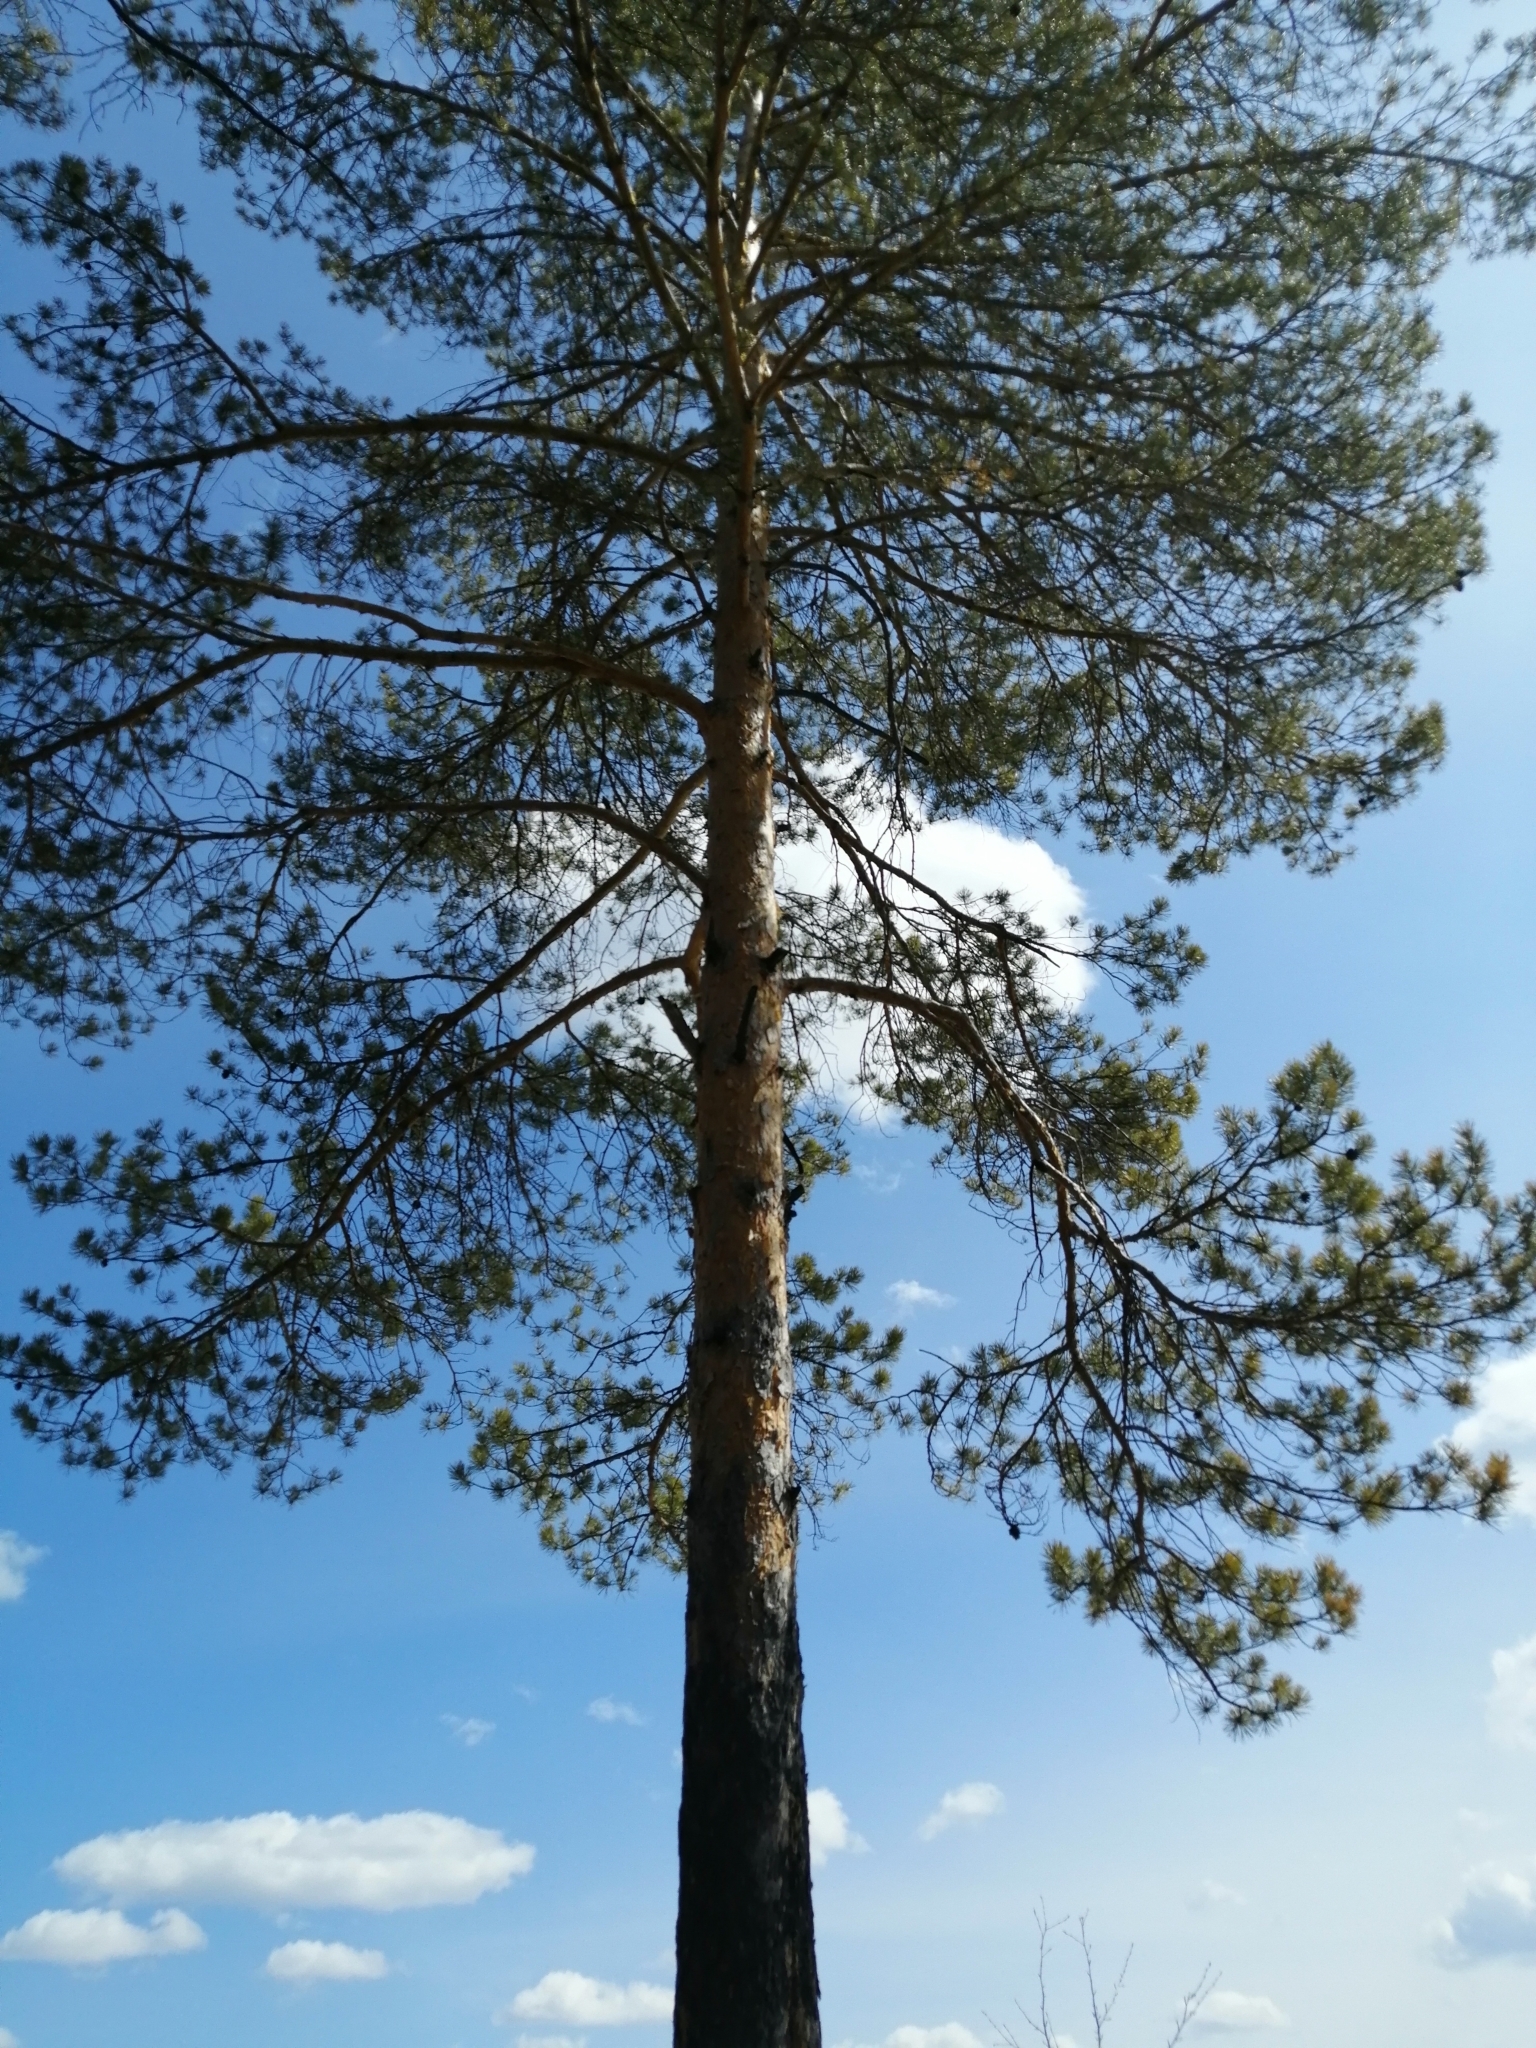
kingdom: Plantae
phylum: Tracheophyta
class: Pinopsida
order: Pinales
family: Pinaceae
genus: Pinus
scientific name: Pinus sylvestris
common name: Scots pine
